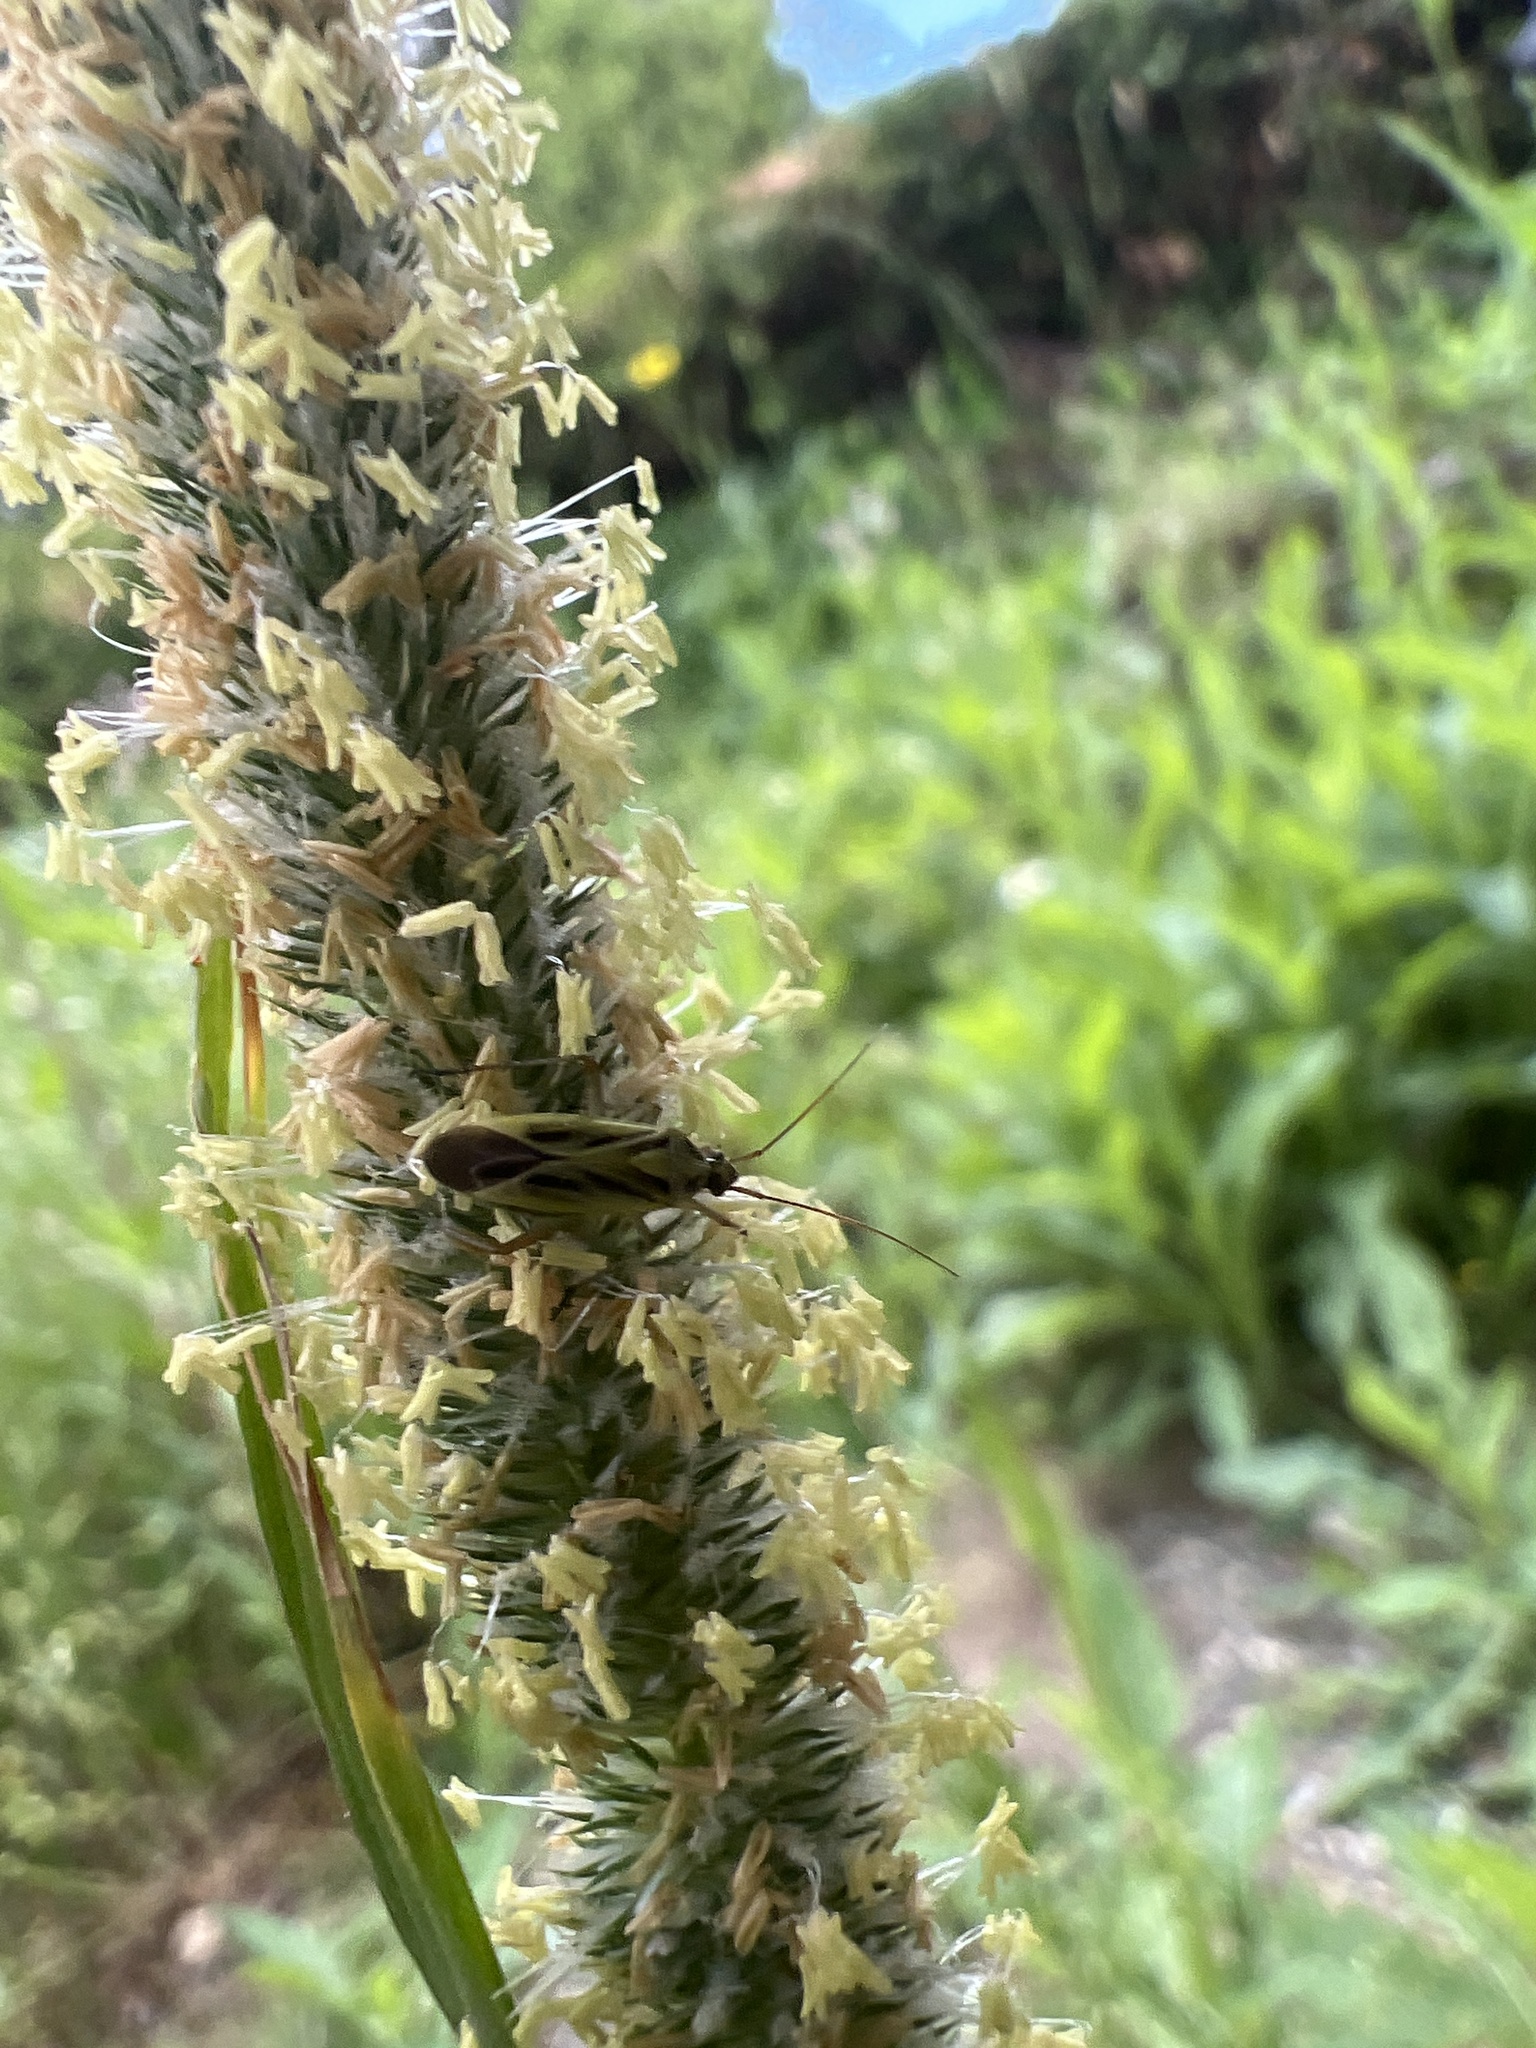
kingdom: Animalia
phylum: Arthropoda
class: Insecta
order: Hemiptera
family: Miridae
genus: Stenotus
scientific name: Stenotus binotatus
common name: Plant bug
